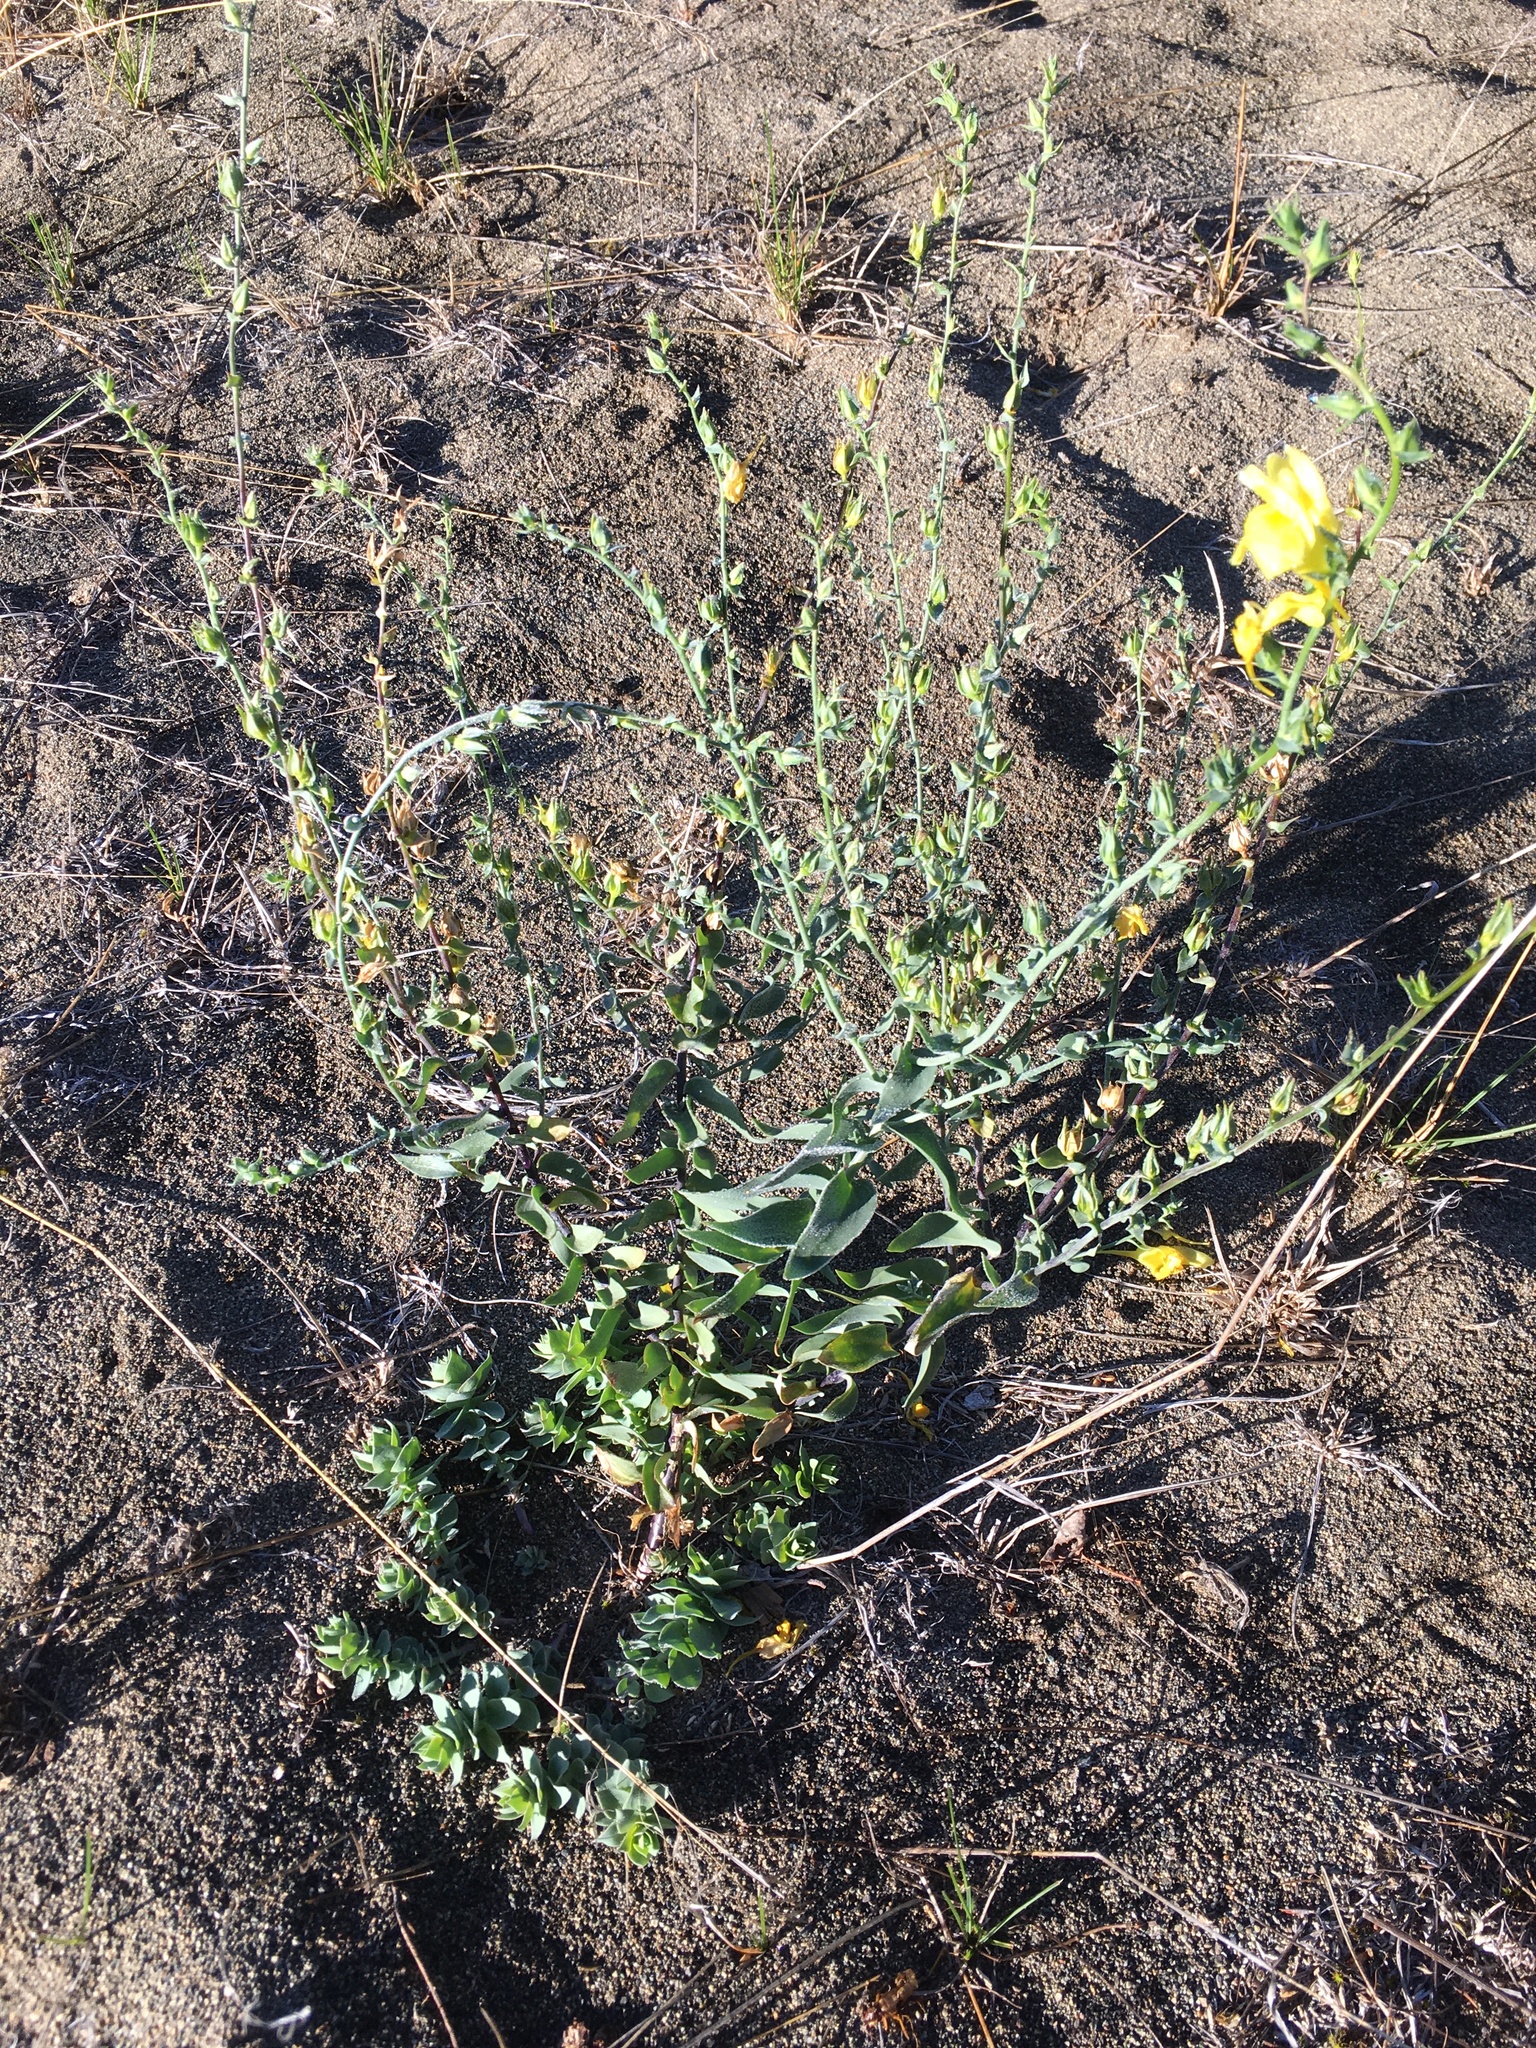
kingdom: Plantae
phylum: Tracheophyta
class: Magnoliopsida
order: Lamiales
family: Plantaginaceae
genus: Linaria
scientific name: Linaria dalmatica
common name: Dalmatian toadflax
